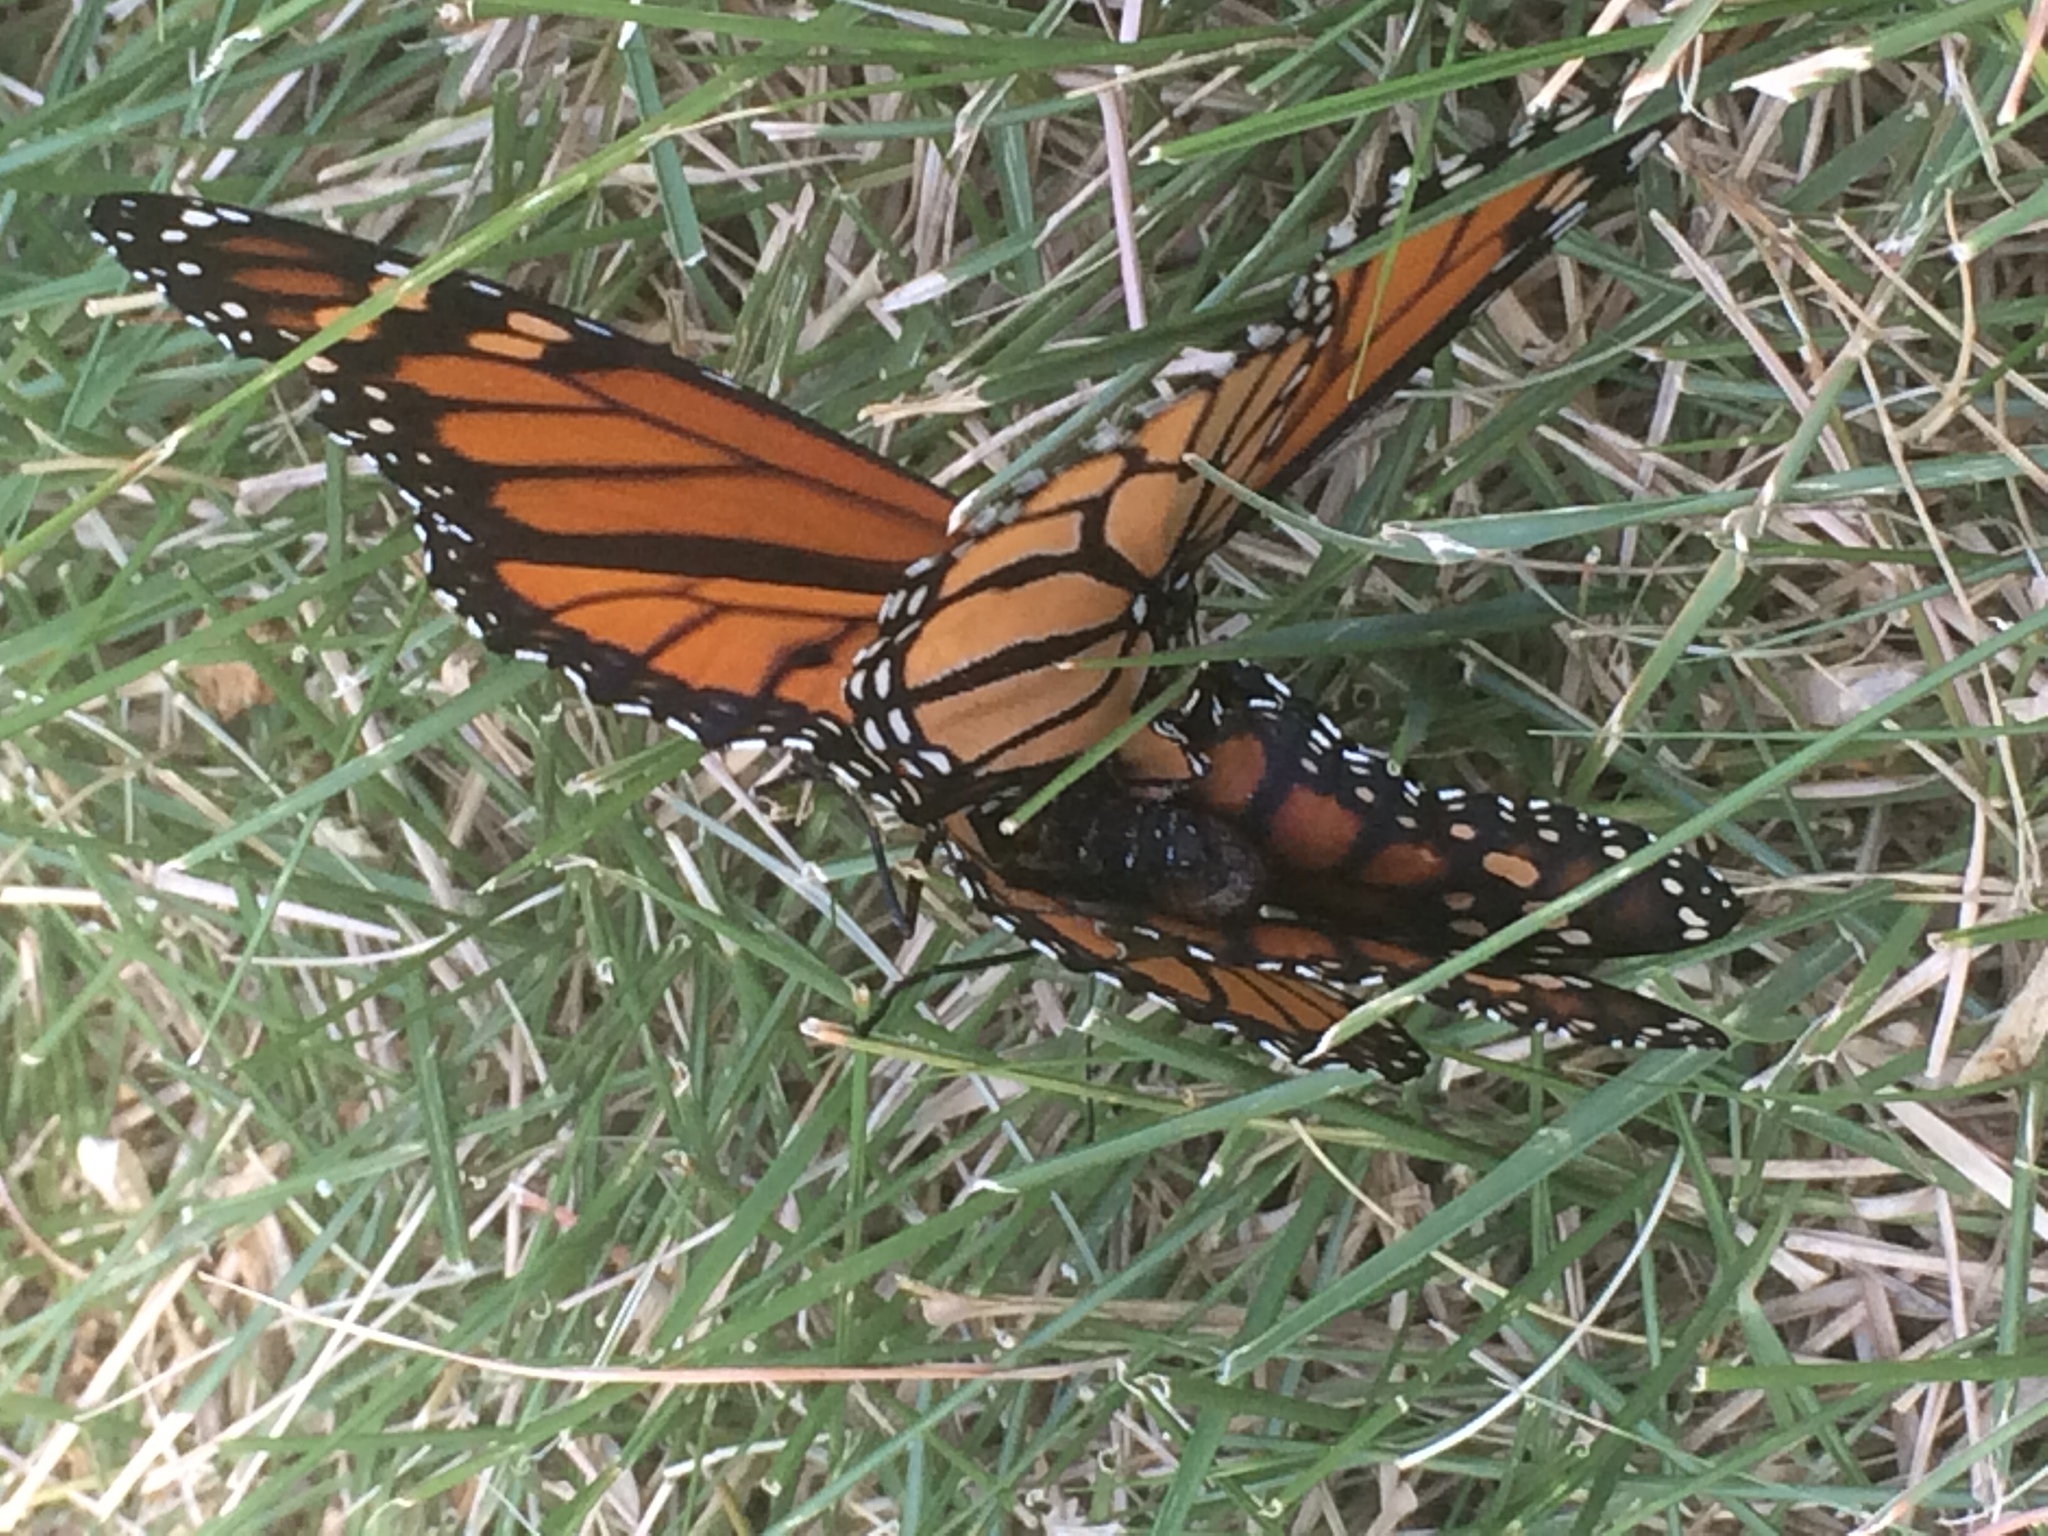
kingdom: Animalia
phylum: Arthropoda
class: Insecta
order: Lepidoptera
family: Nymphalidae
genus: Danaus
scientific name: Danaus plexippus
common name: Monarch
